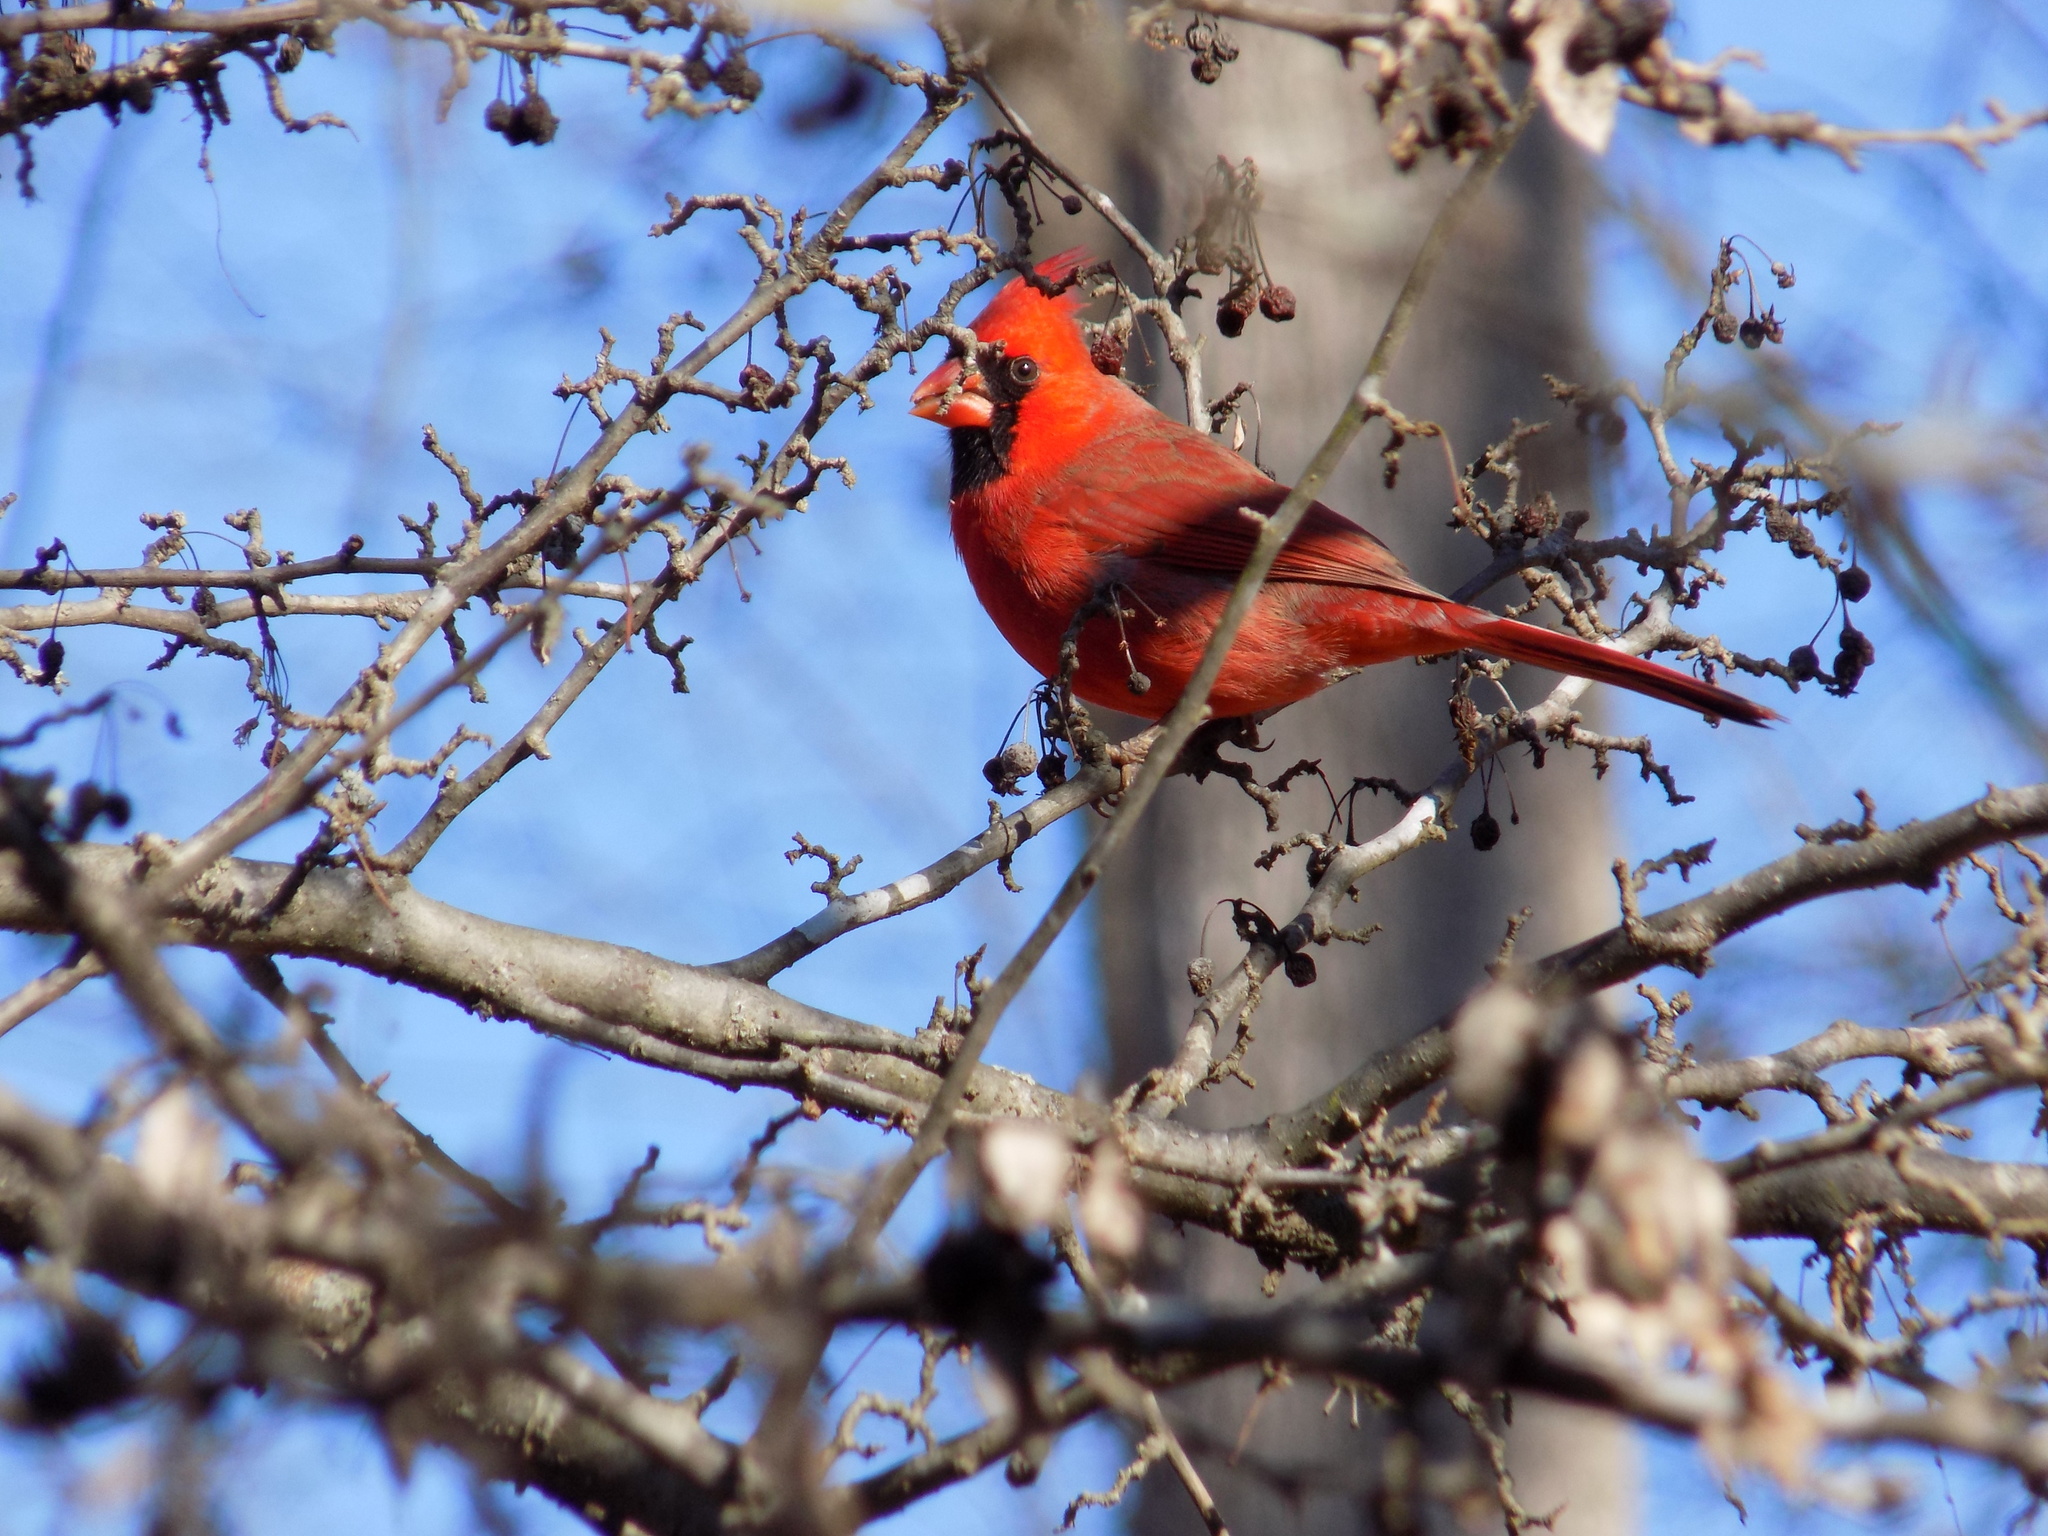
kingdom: Animalia
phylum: Chordata
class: Aves
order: Passeriformes
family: Cardinalidae
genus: Cardinalis
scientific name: Cardinalis cardinalis
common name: Northern cardinal
